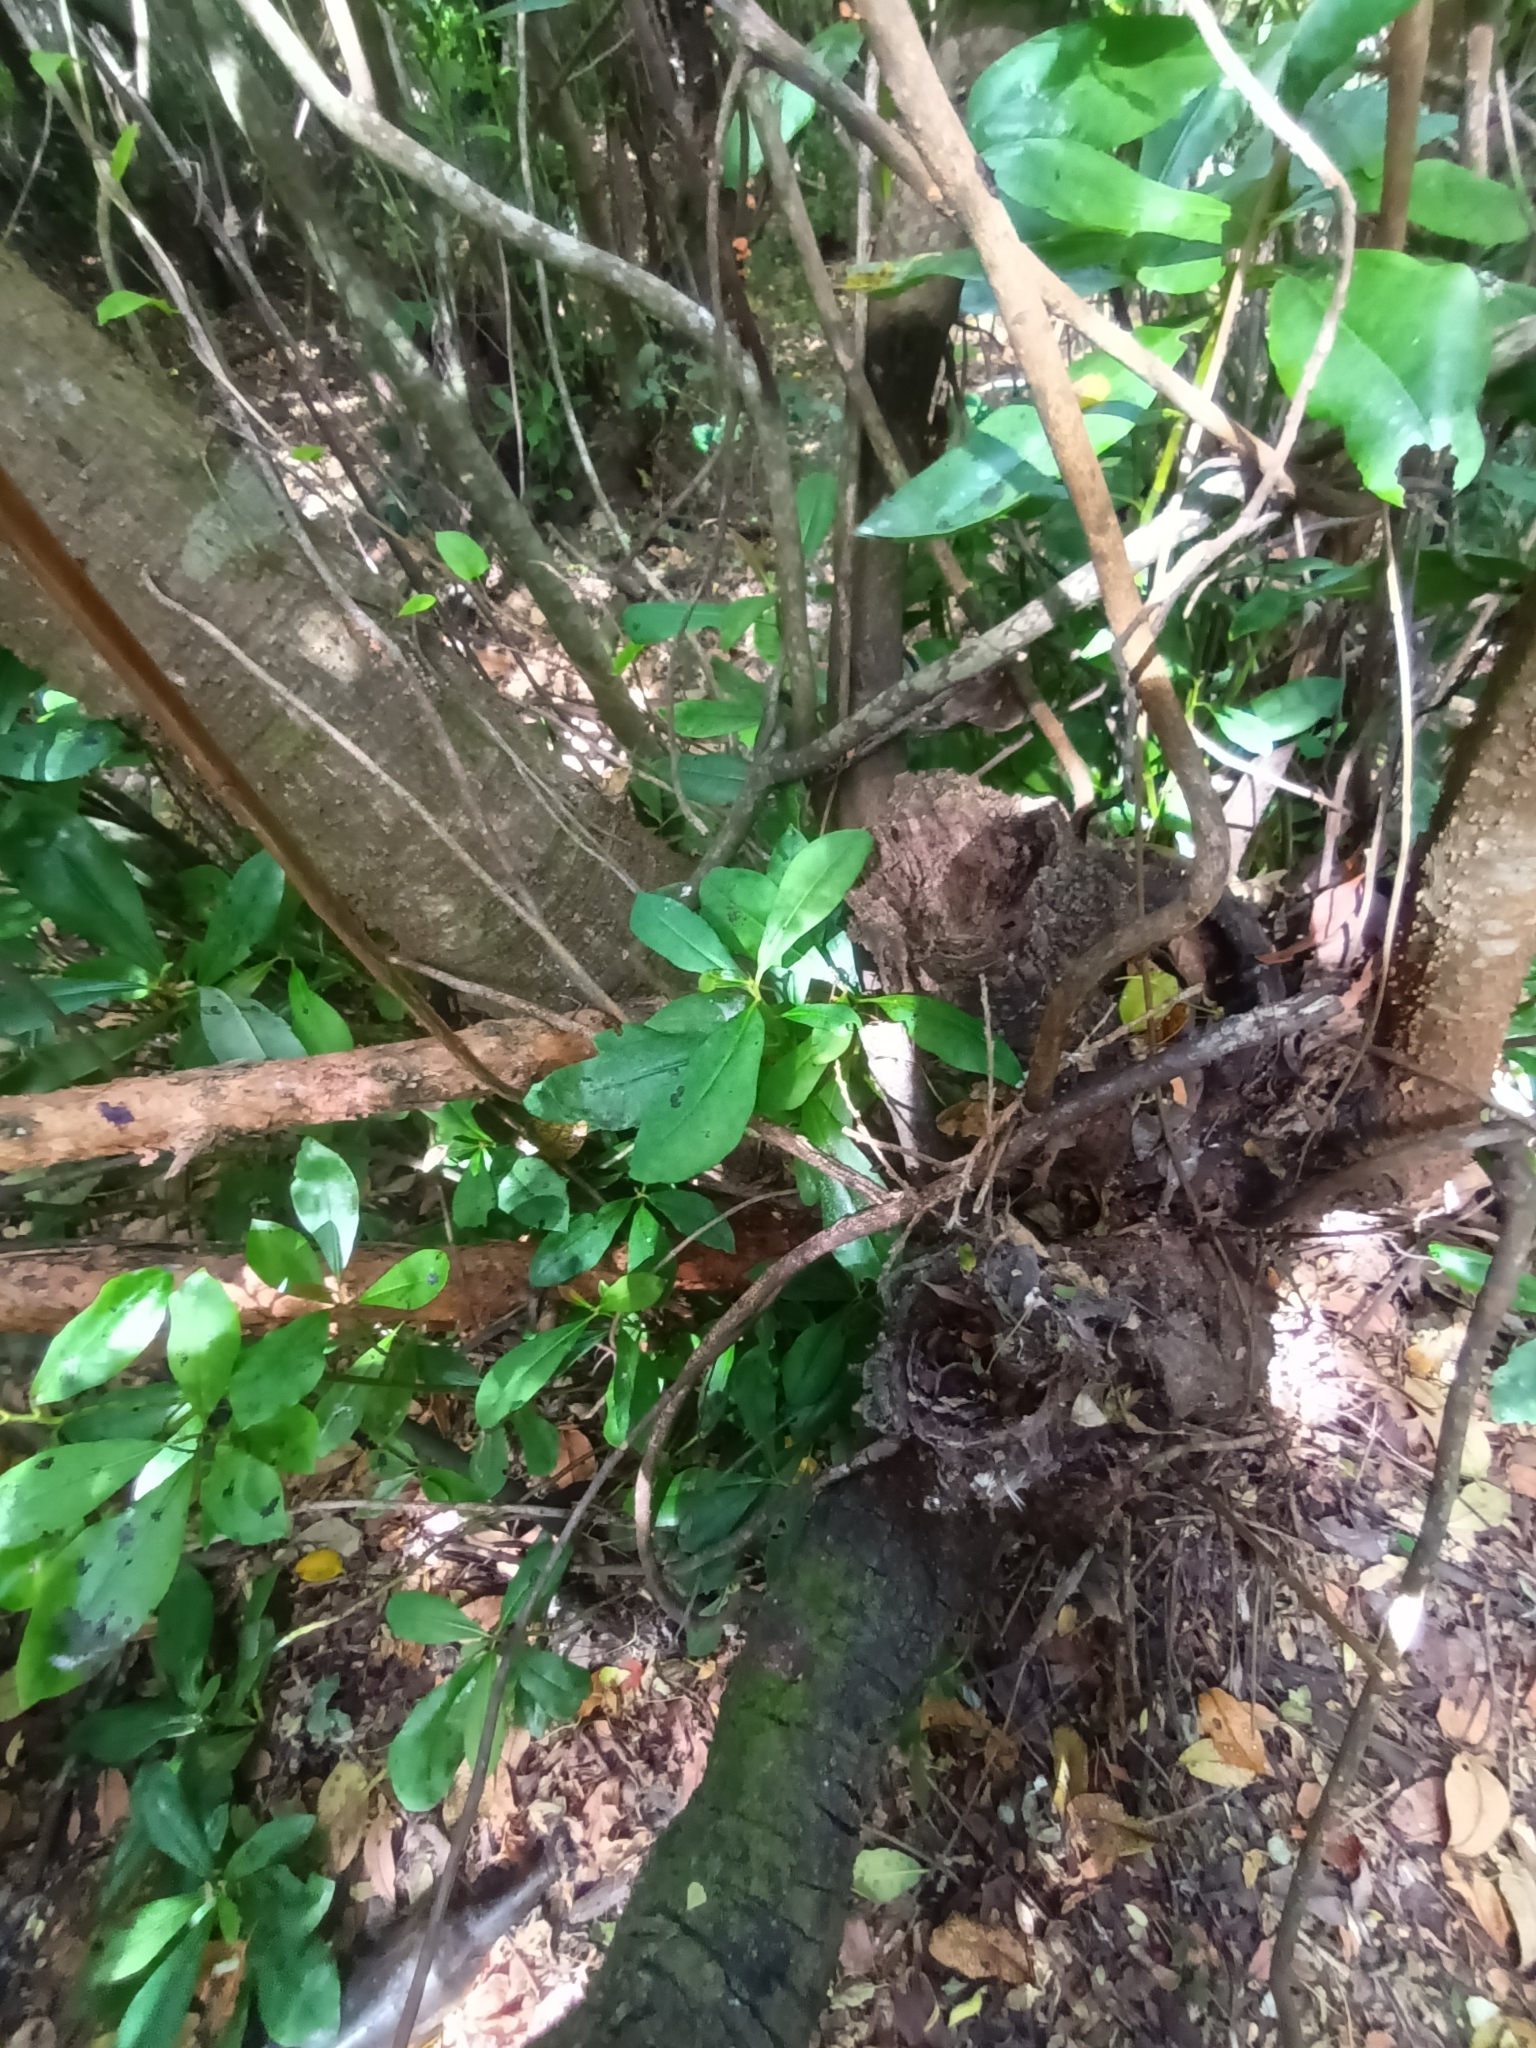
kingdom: Plantae
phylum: Tracheophyta
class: Magnoliopsida
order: Canellales
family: Winteraceae
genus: Drimys
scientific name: Drimys winteri
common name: Winter's-bark
